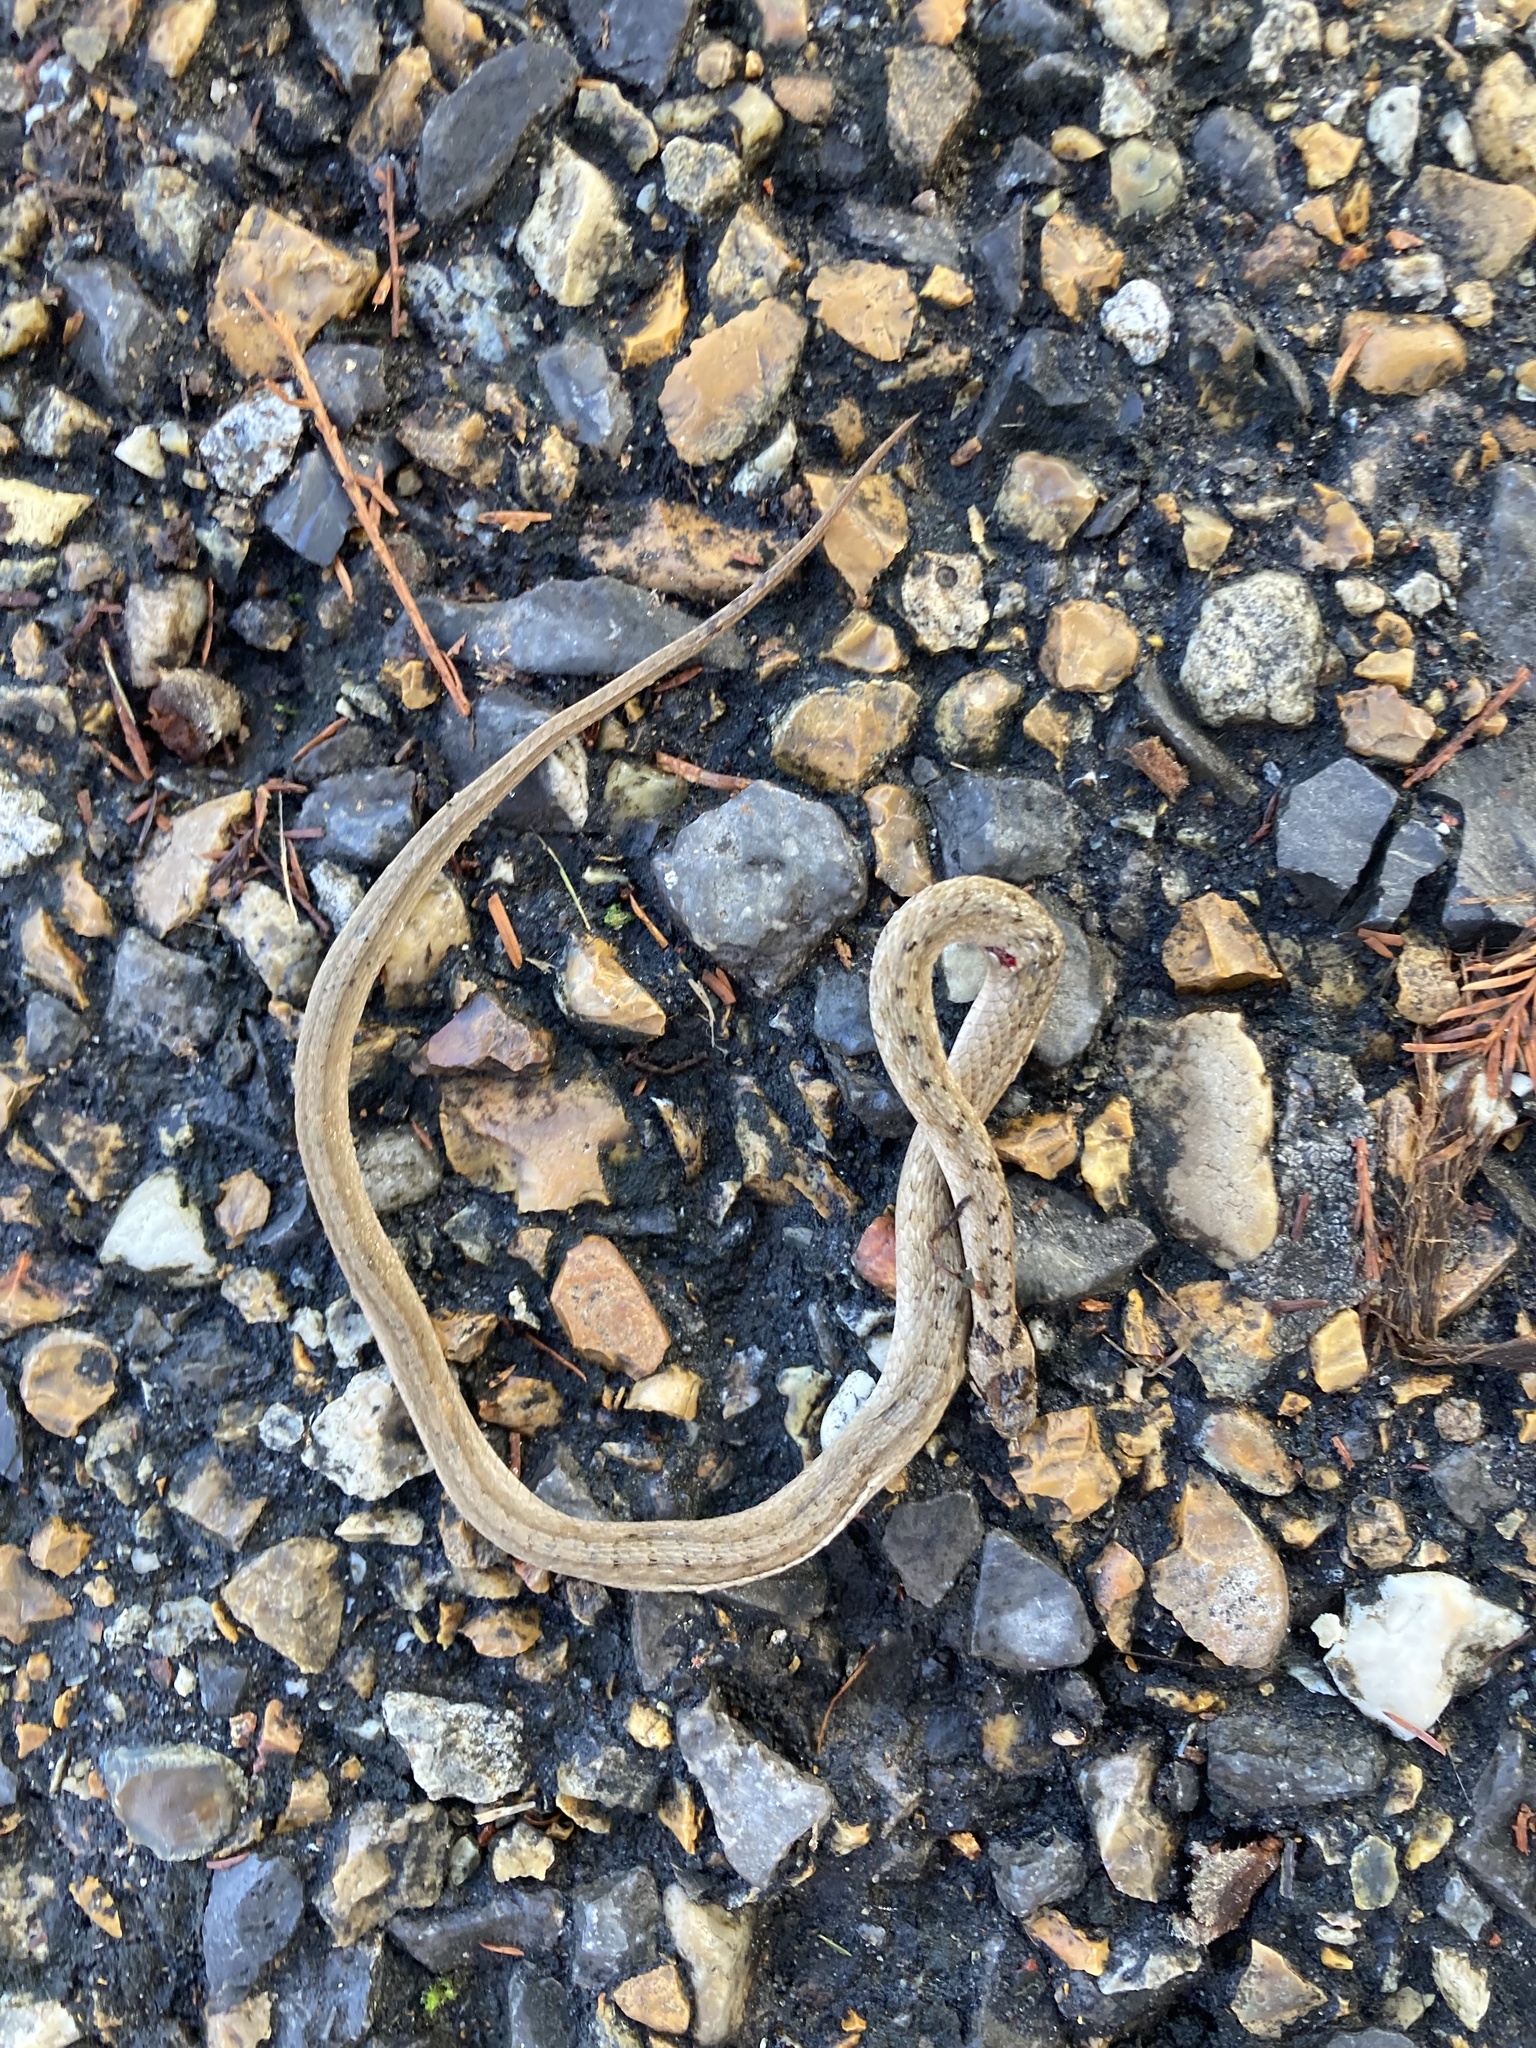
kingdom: Animalia
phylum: Chordata
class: Squamata
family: Colubridae
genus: Storeria
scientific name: Storeria dekayi
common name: (dekay’s) brown snake
